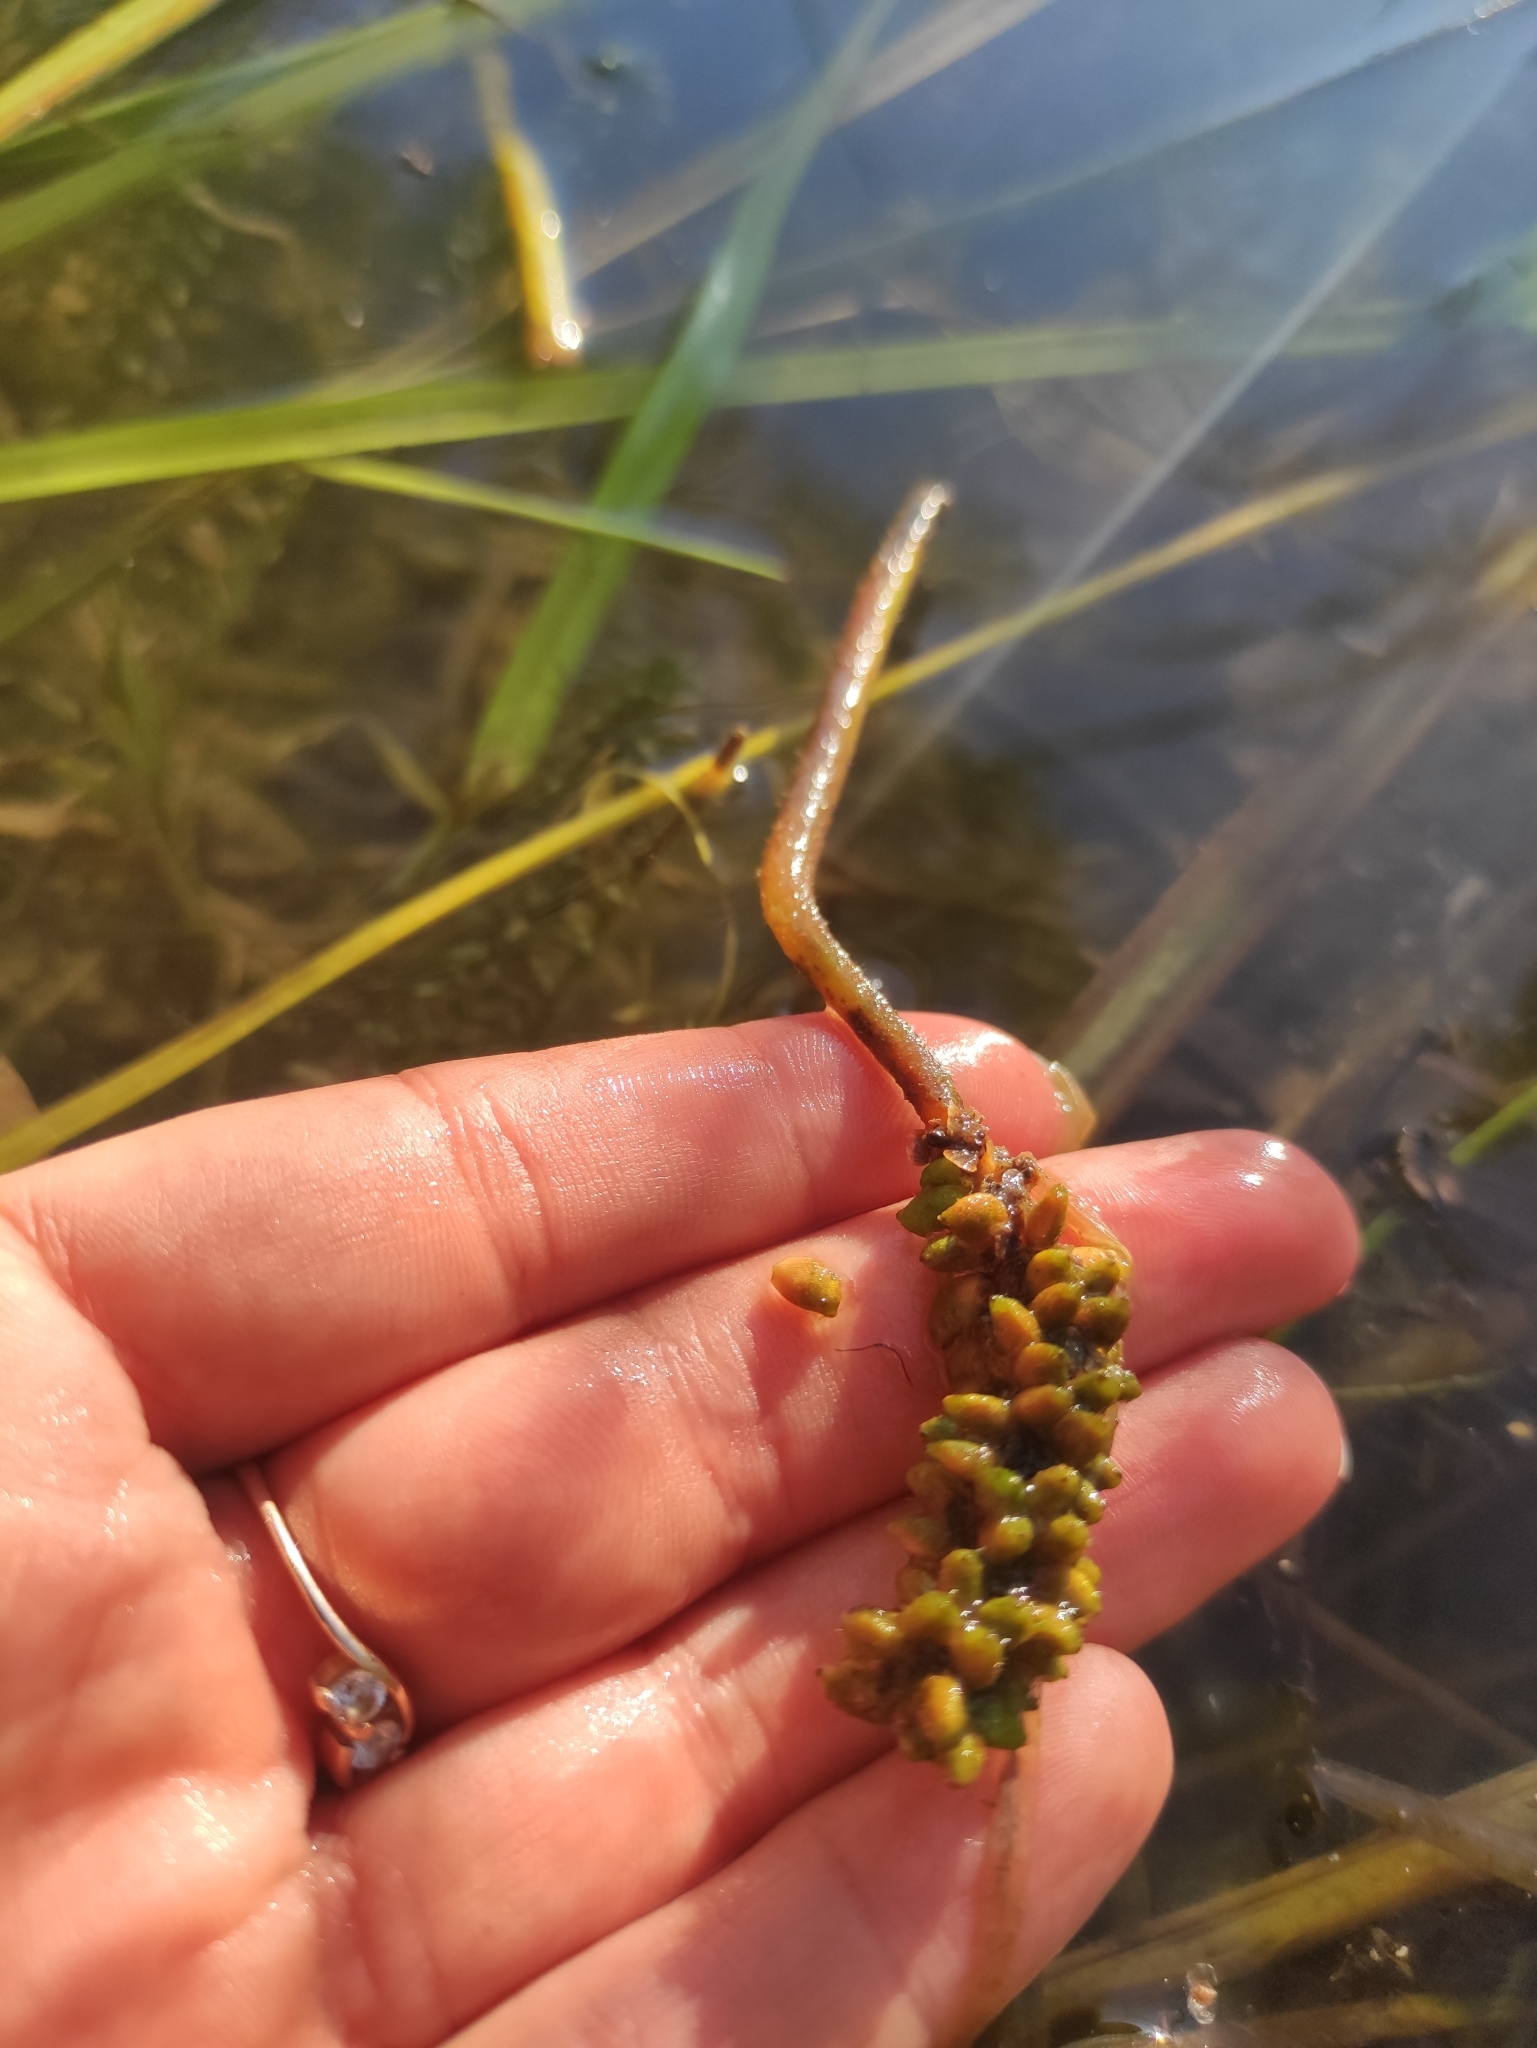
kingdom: Plantae
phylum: Tracheophyta
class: Liliopsida
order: Alismatales
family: Potamogetonaceae
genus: Potamogeton
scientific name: Potamogeton natans
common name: Broad-leaved pondweed
